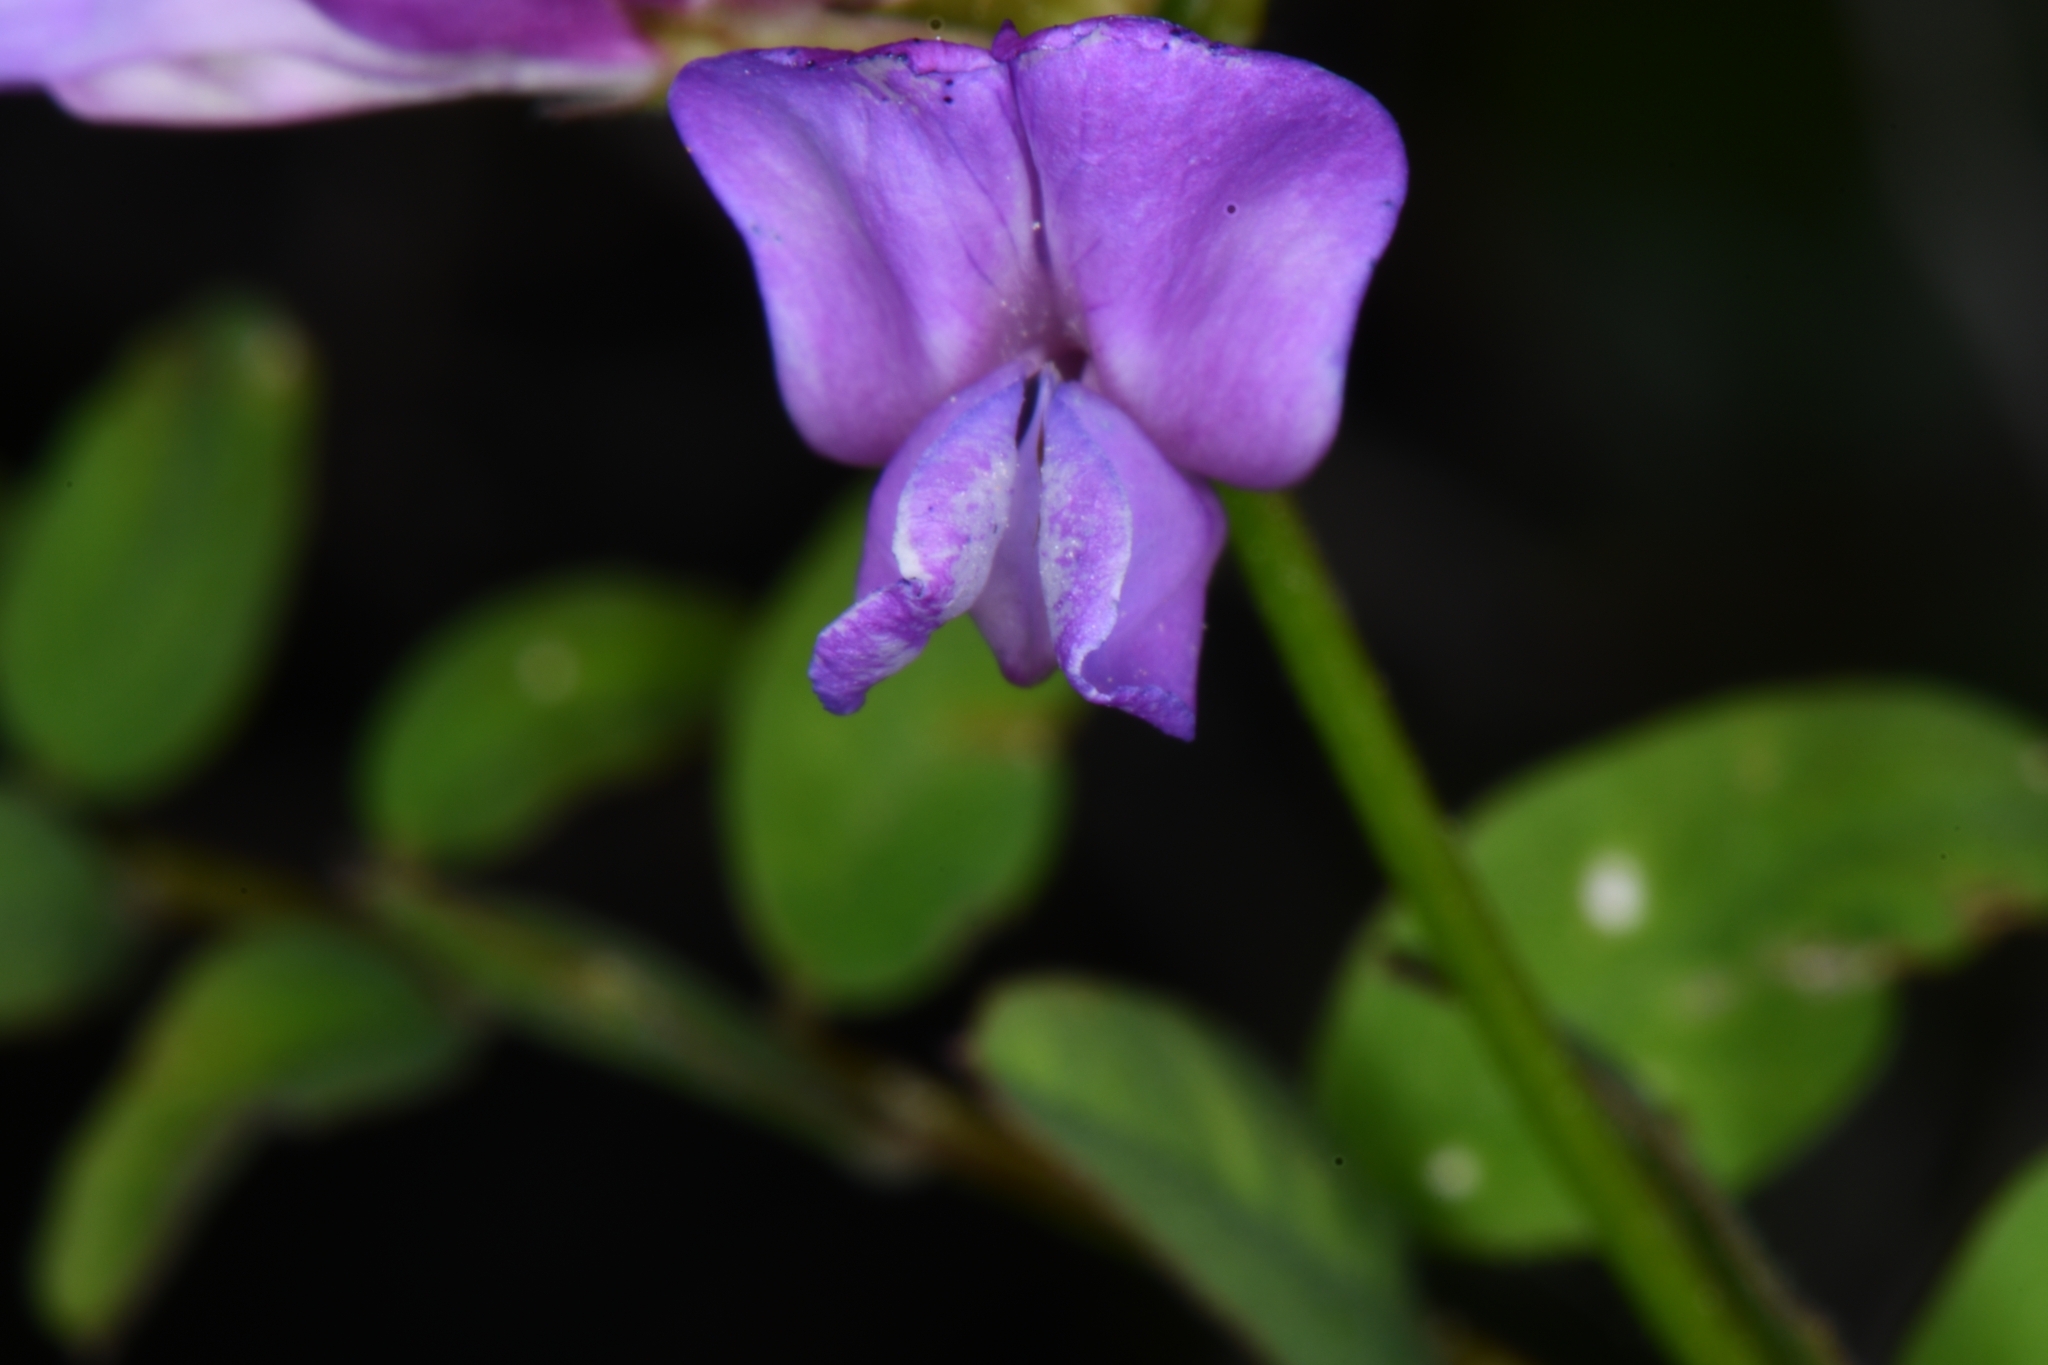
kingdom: Plantae
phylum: Tracheophyta
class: Magnoliopsida
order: Fabales
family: Fabaceae
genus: Vicia
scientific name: Vicia americana
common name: American vetch
